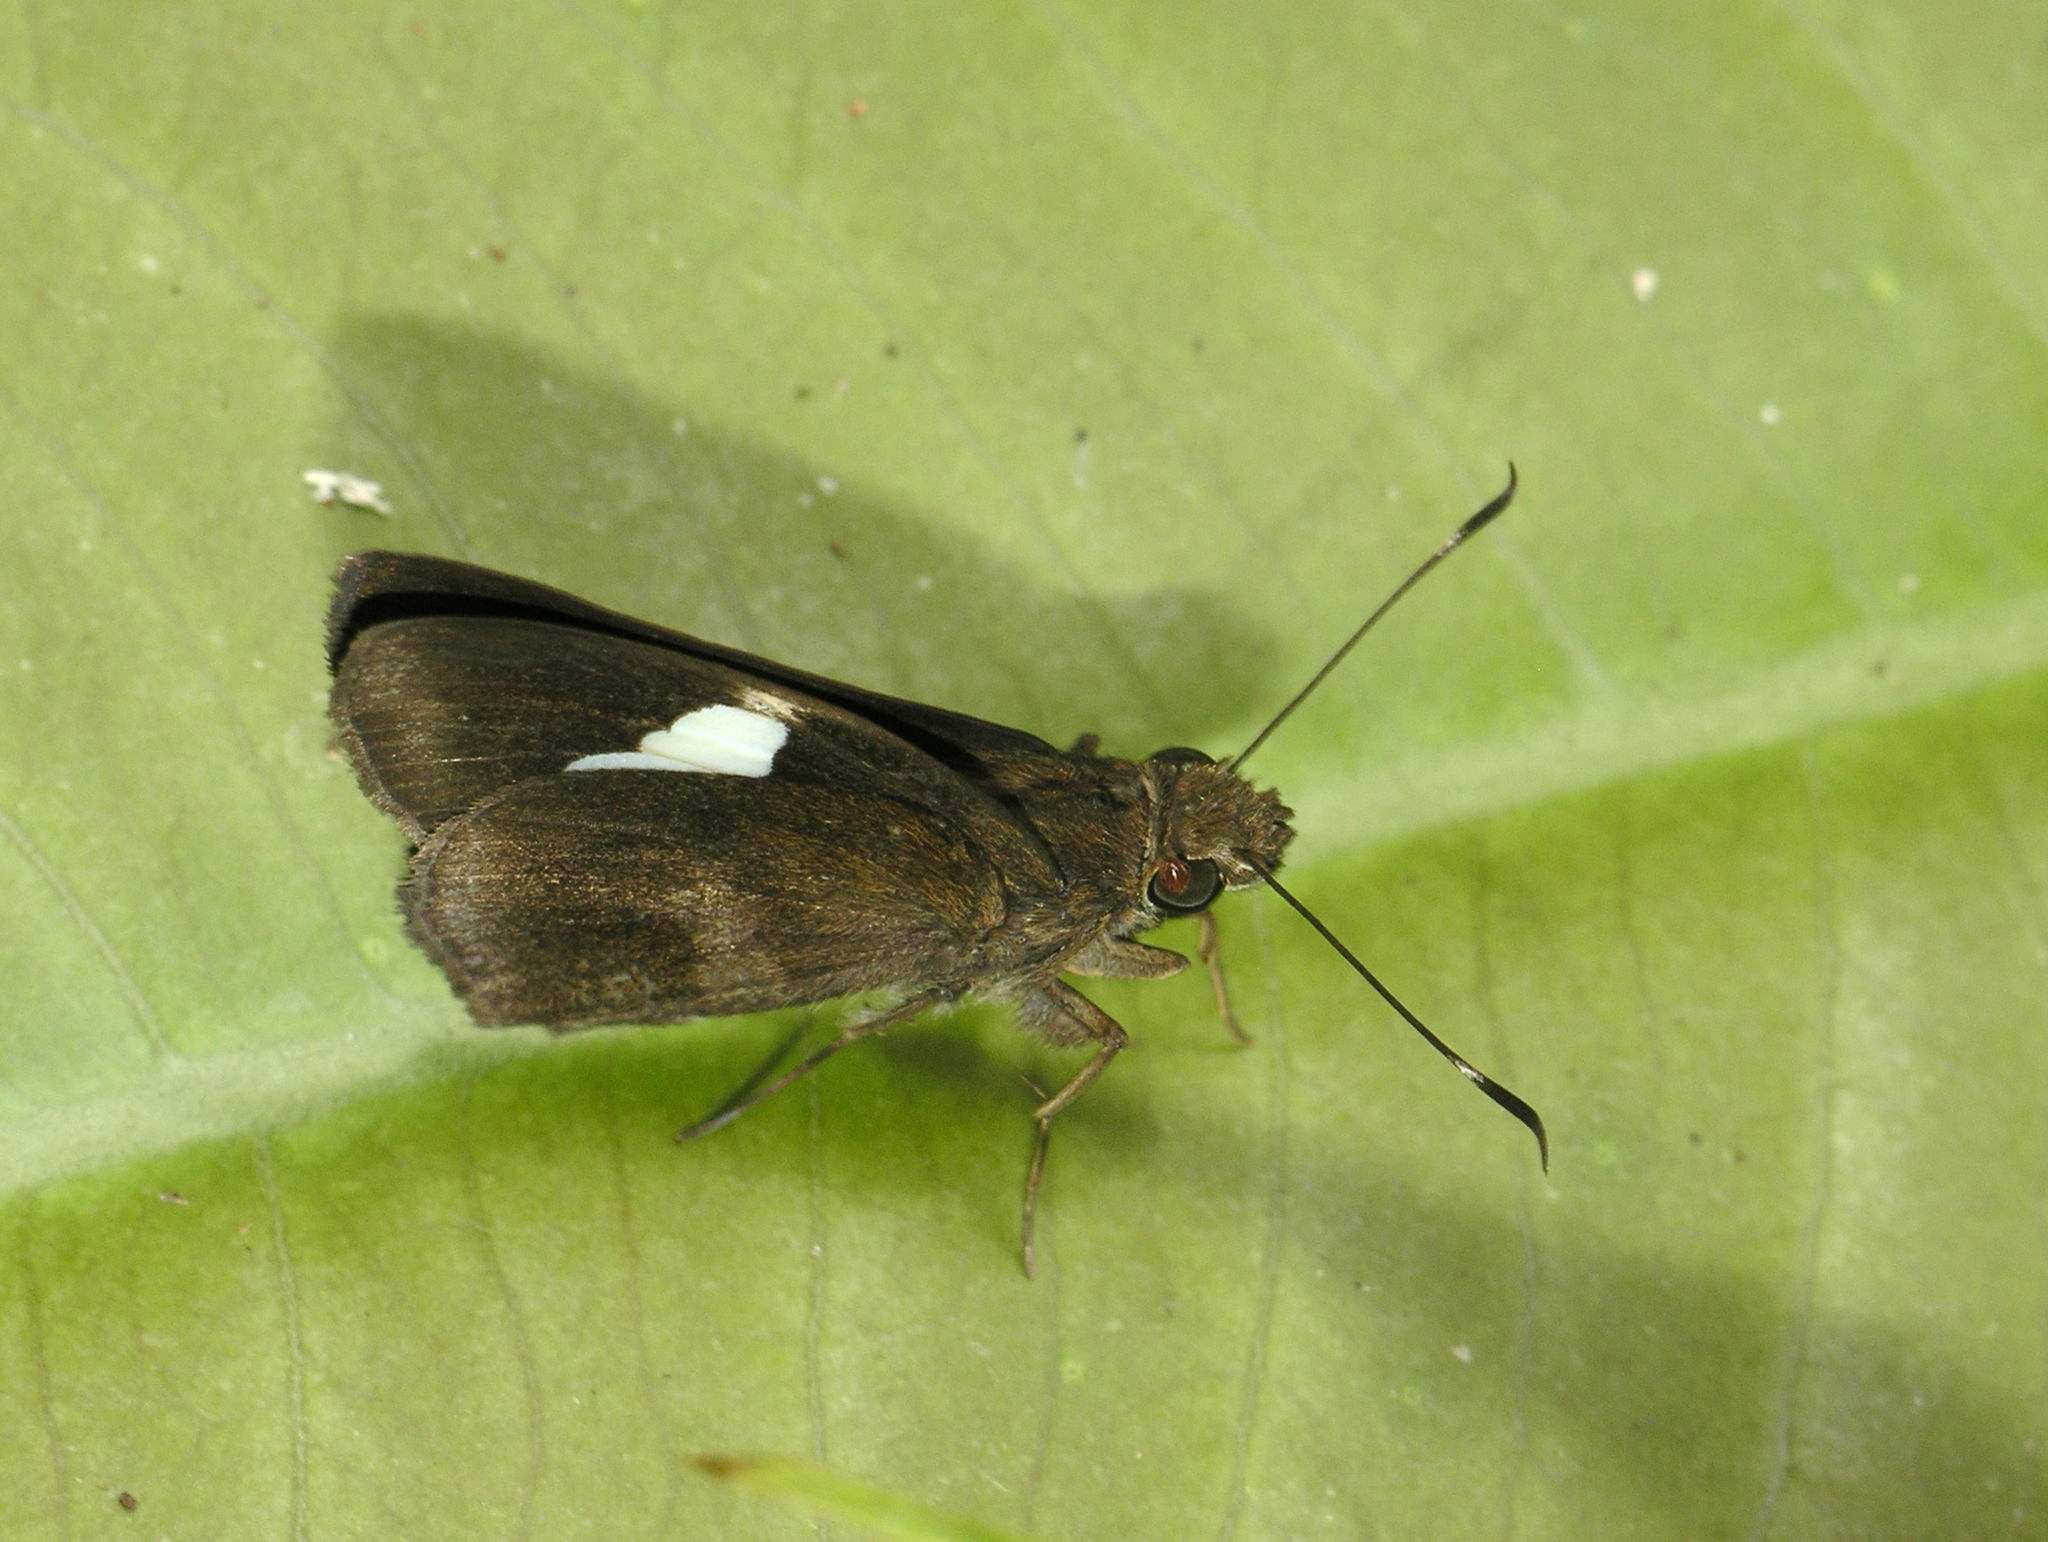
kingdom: Animalia
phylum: Arthropoda
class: Insecta
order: Lepidoptera
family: Hesperiidae
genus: Notocrypta
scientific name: Notocrypta paralysos
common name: Common banded demon
